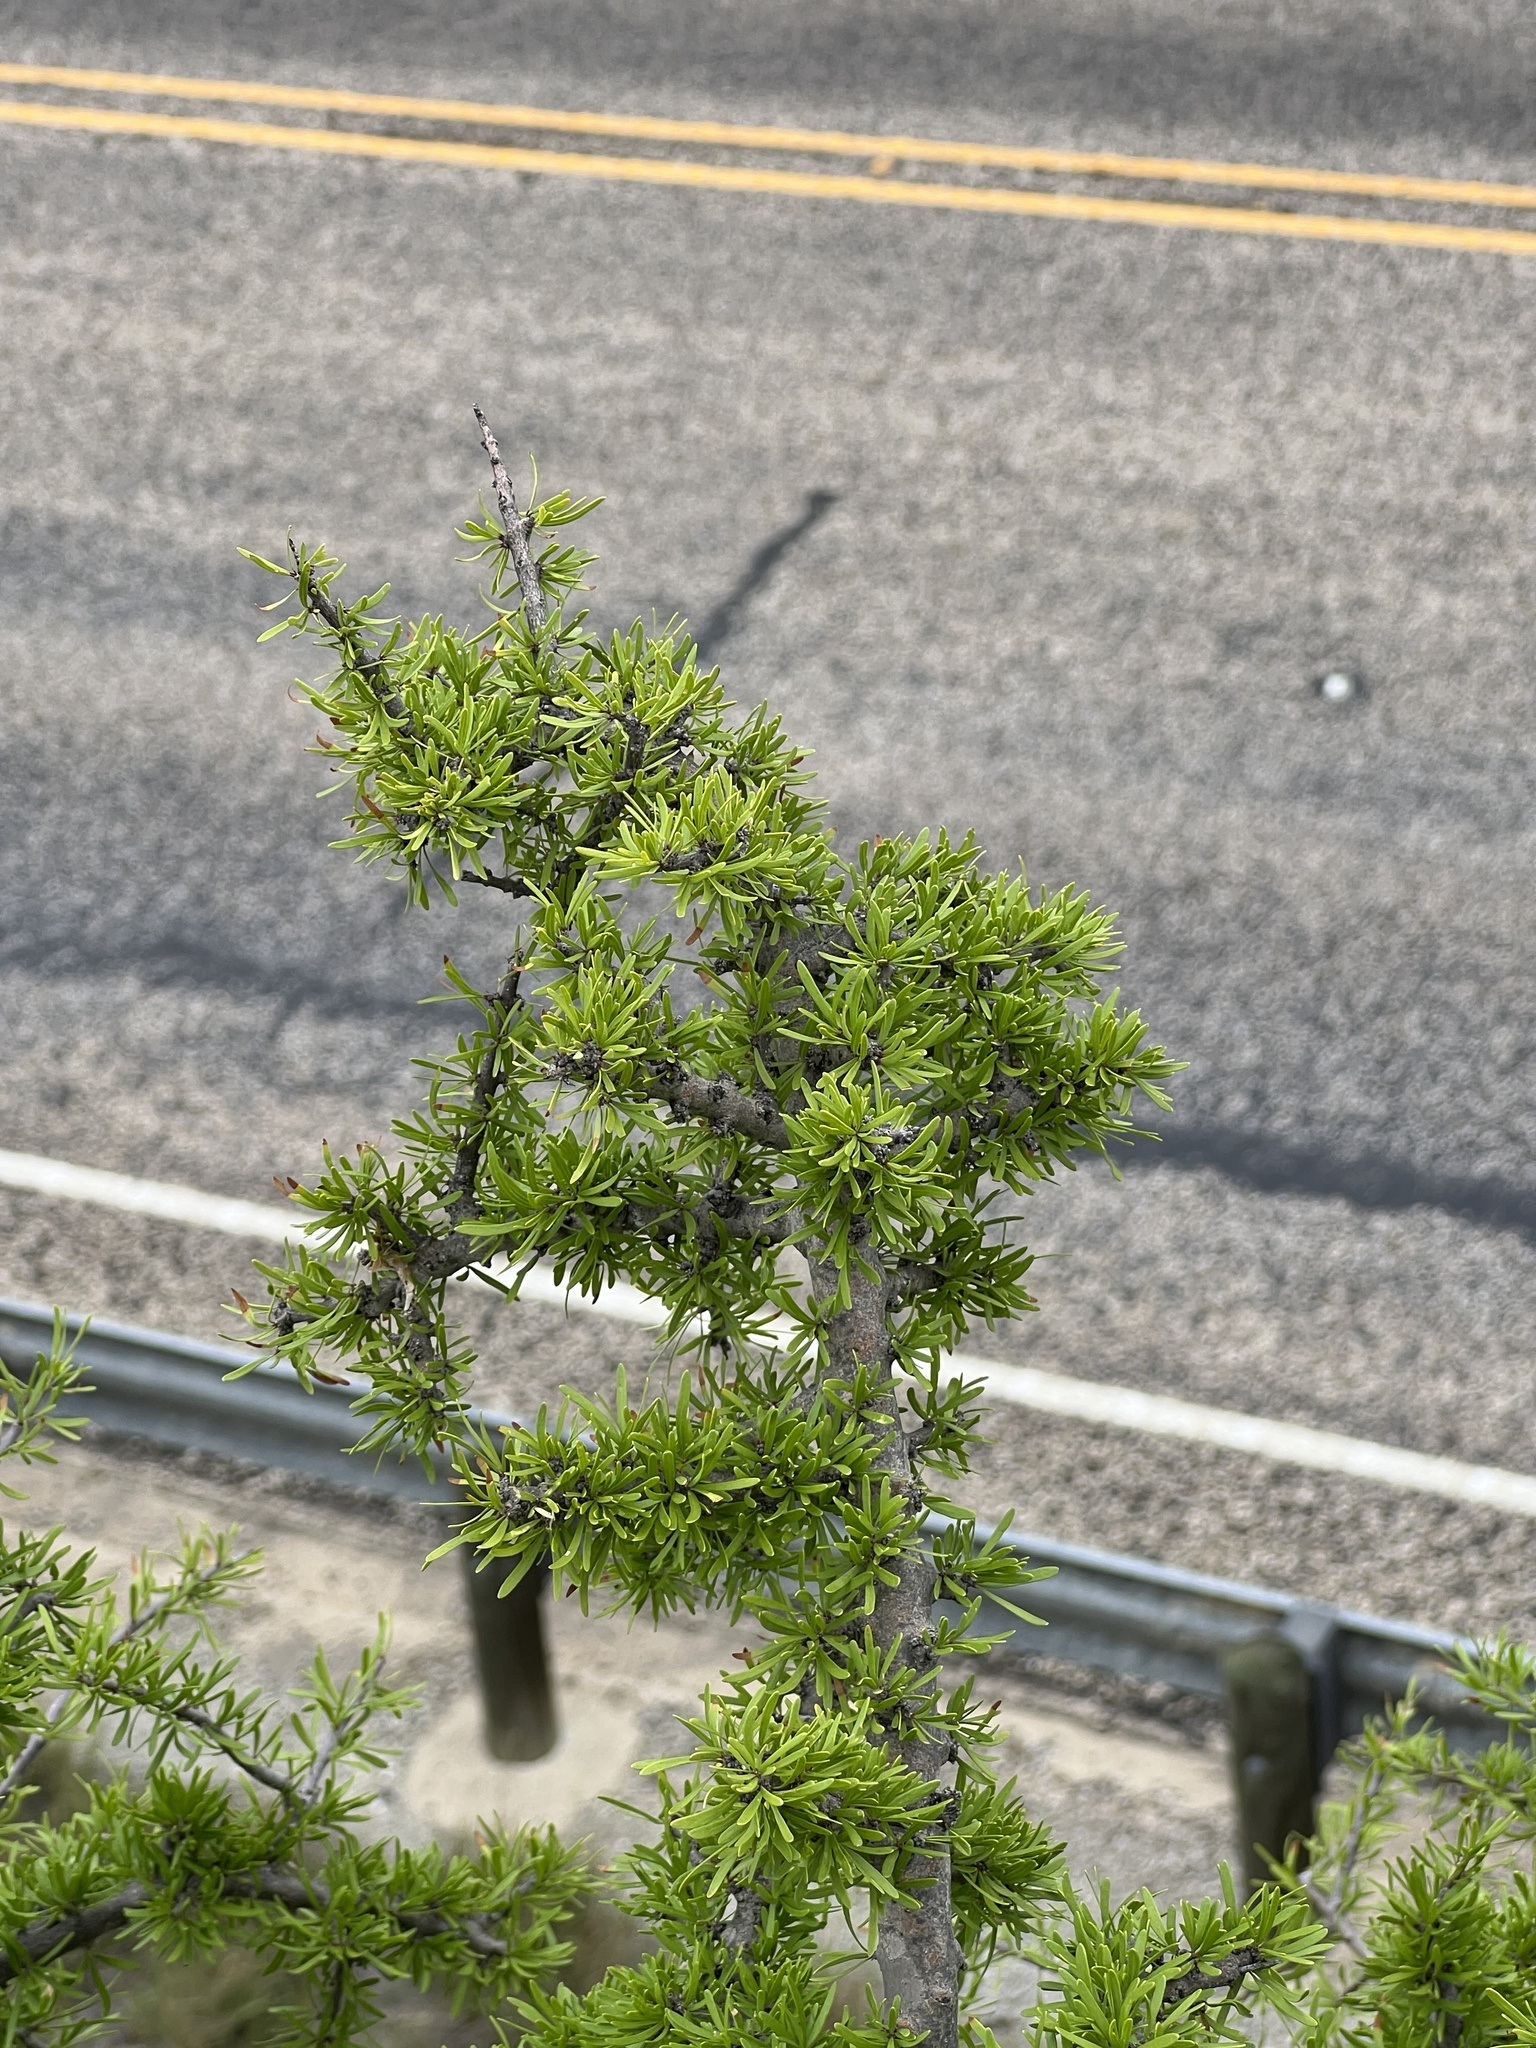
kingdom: Plantae
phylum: Tracheophyta
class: Magnoliopsida
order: Lamiales
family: Oleaceae
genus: Forestiera
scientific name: Forestiera angustifolia
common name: Elbowbush
